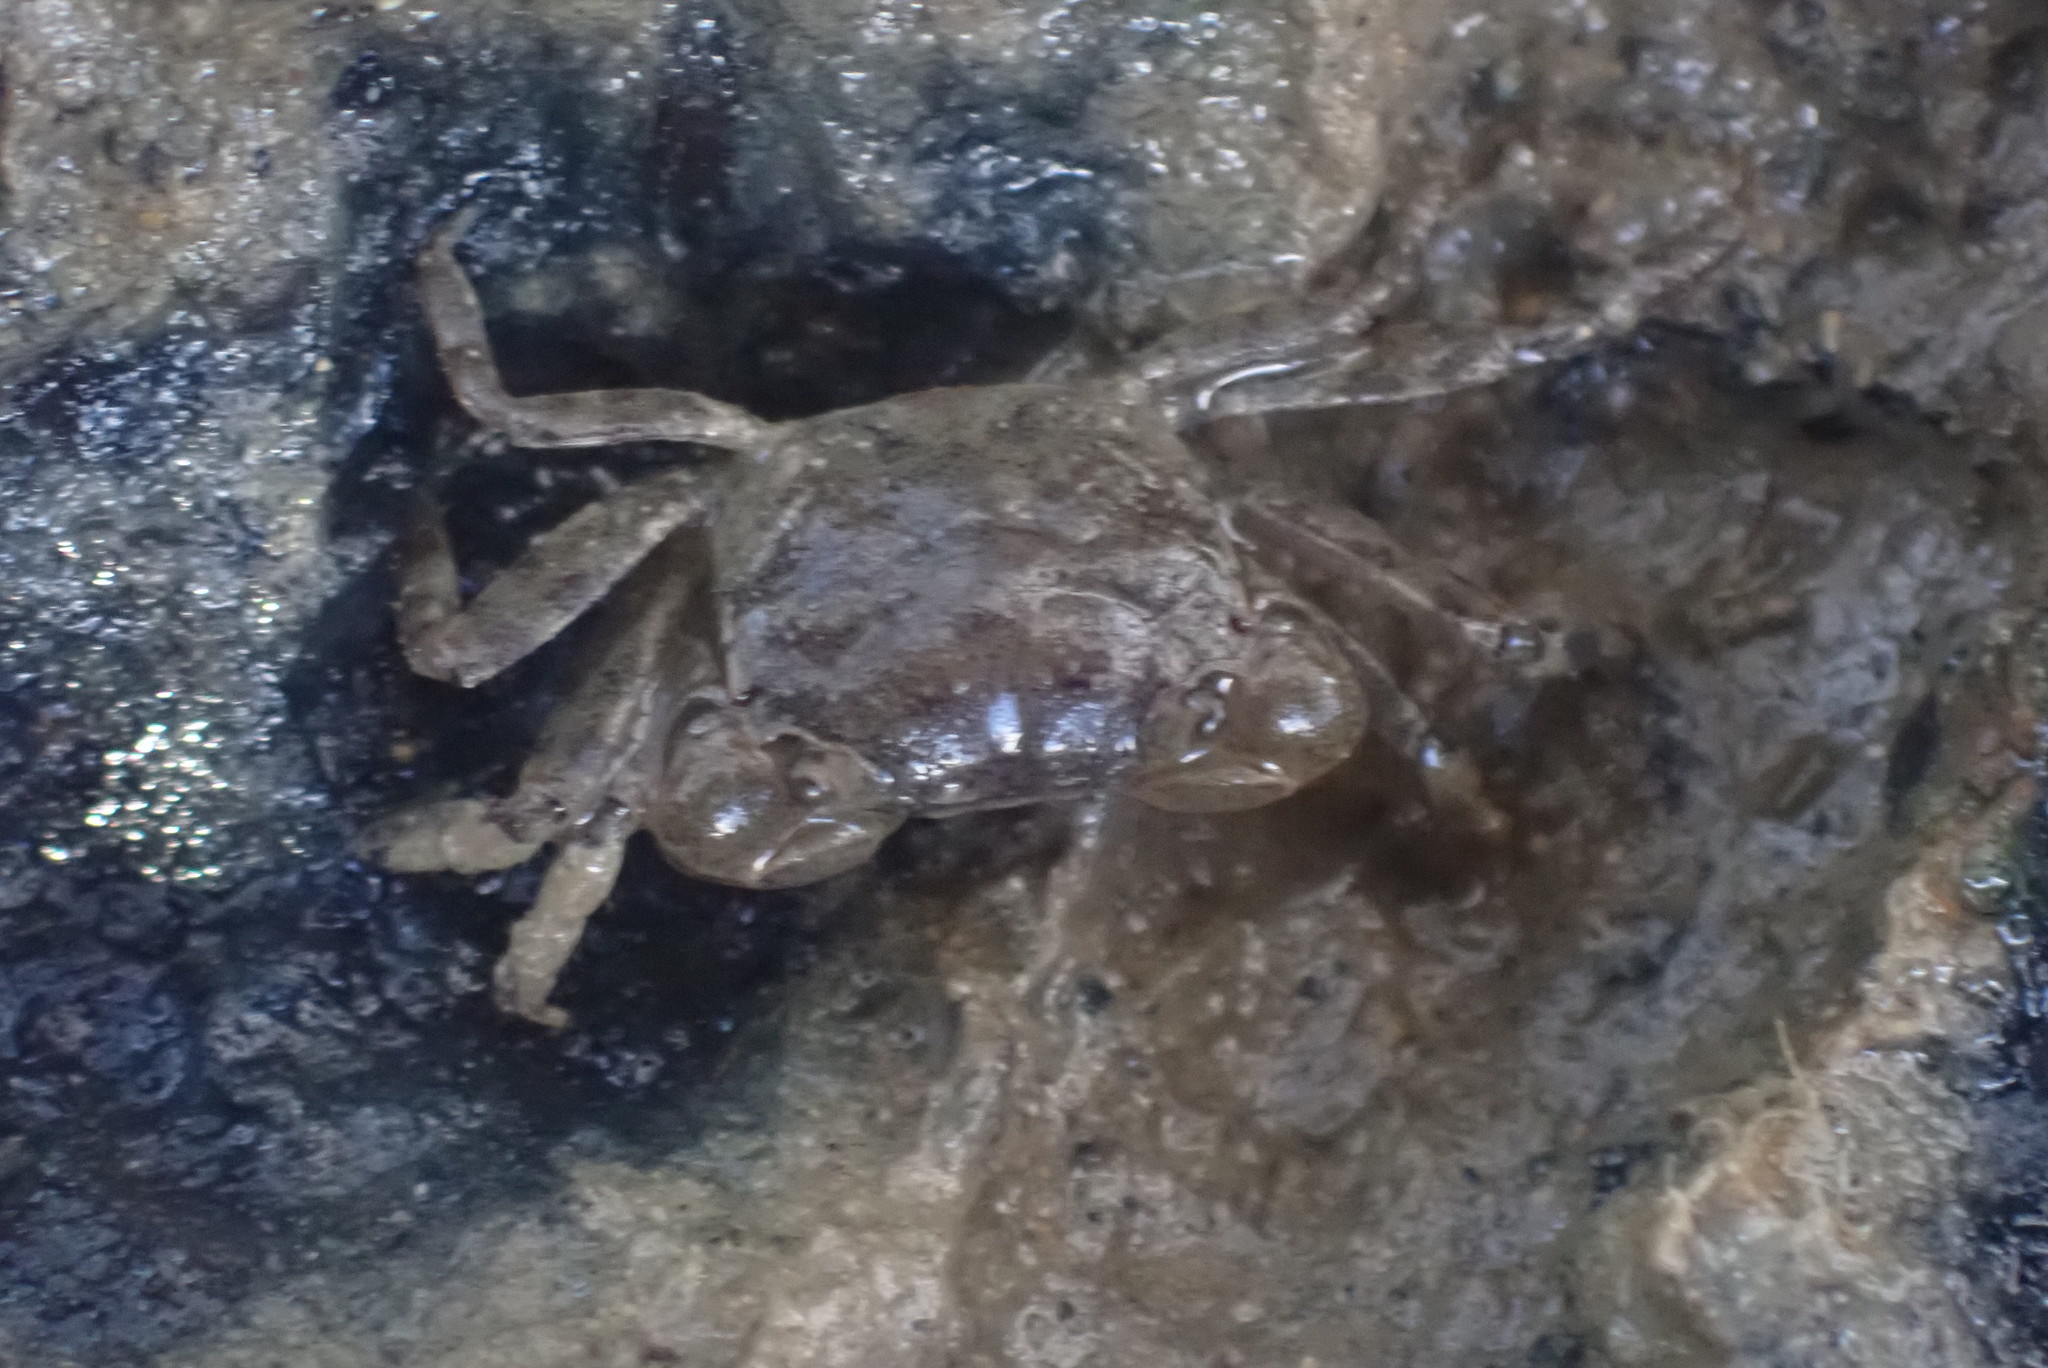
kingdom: Animalia
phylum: Arthropoda
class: Malacostraca
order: Decapoda
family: Varunidae
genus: Austrohelice
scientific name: Austrohelice crassa
